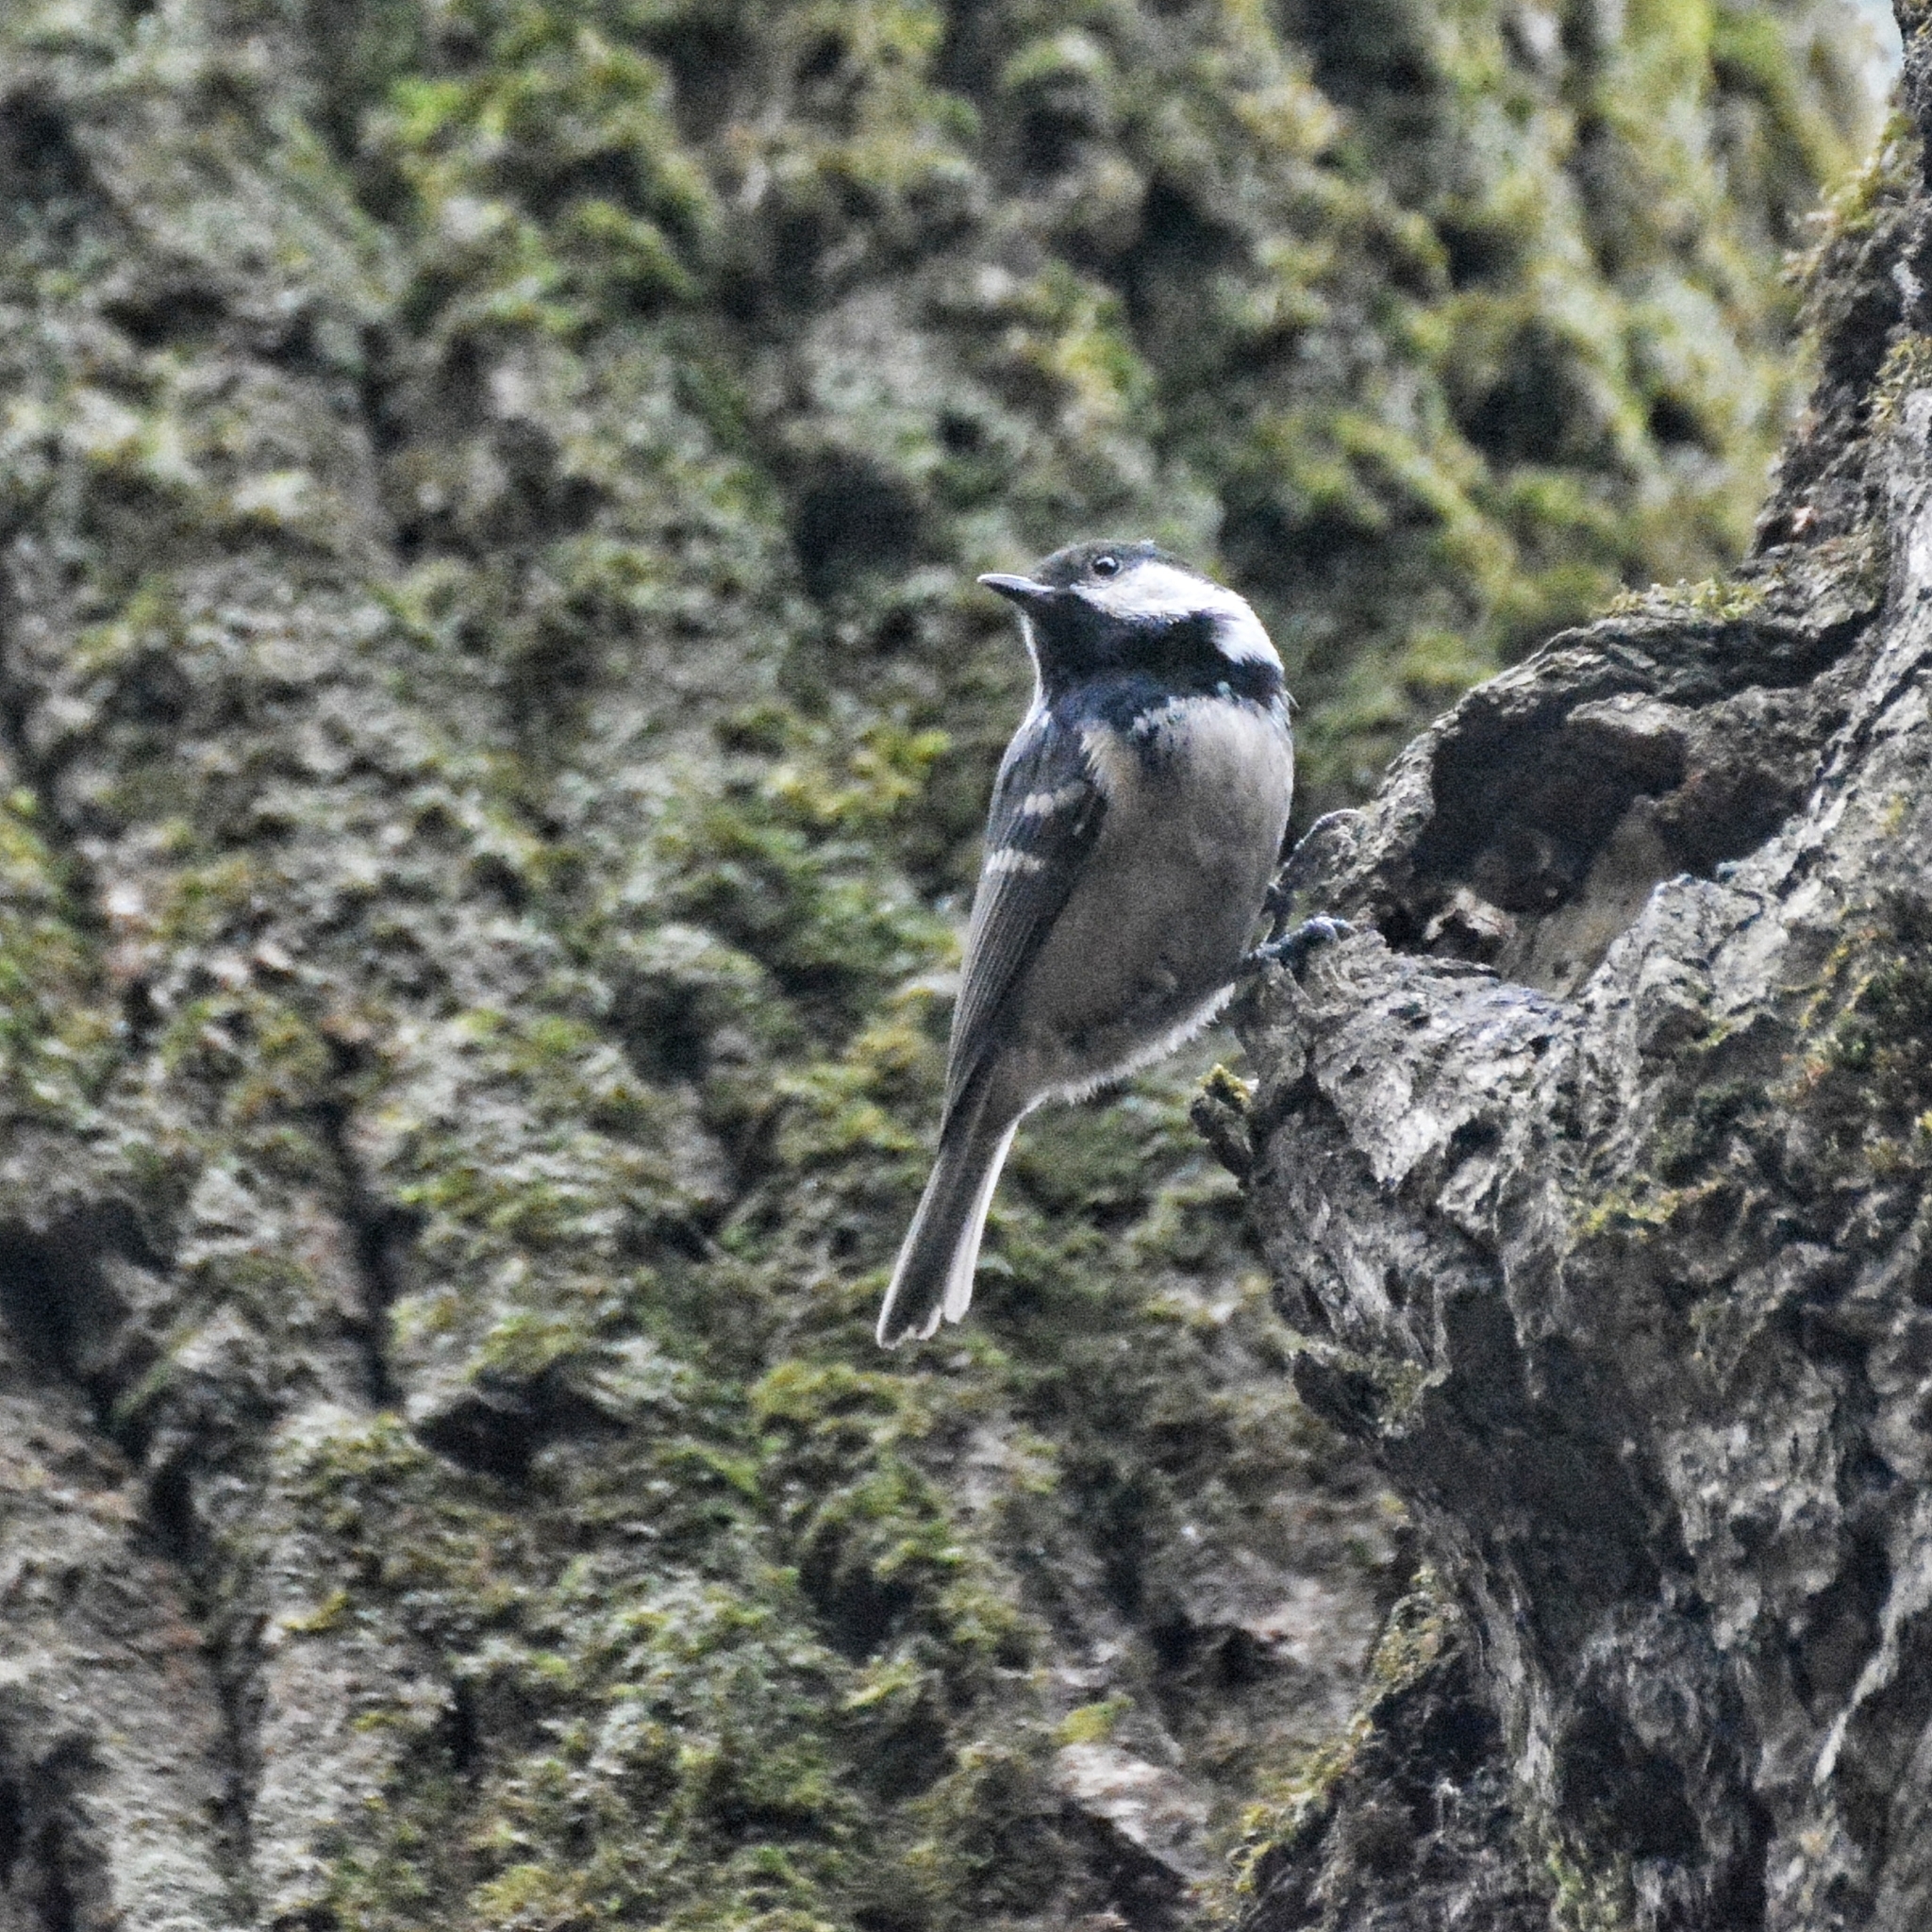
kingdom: Animalia
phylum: Chordata
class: Aves
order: Passeriformes
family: Paridae
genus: Periparus
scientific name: Periparus ater
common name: Coal tit
